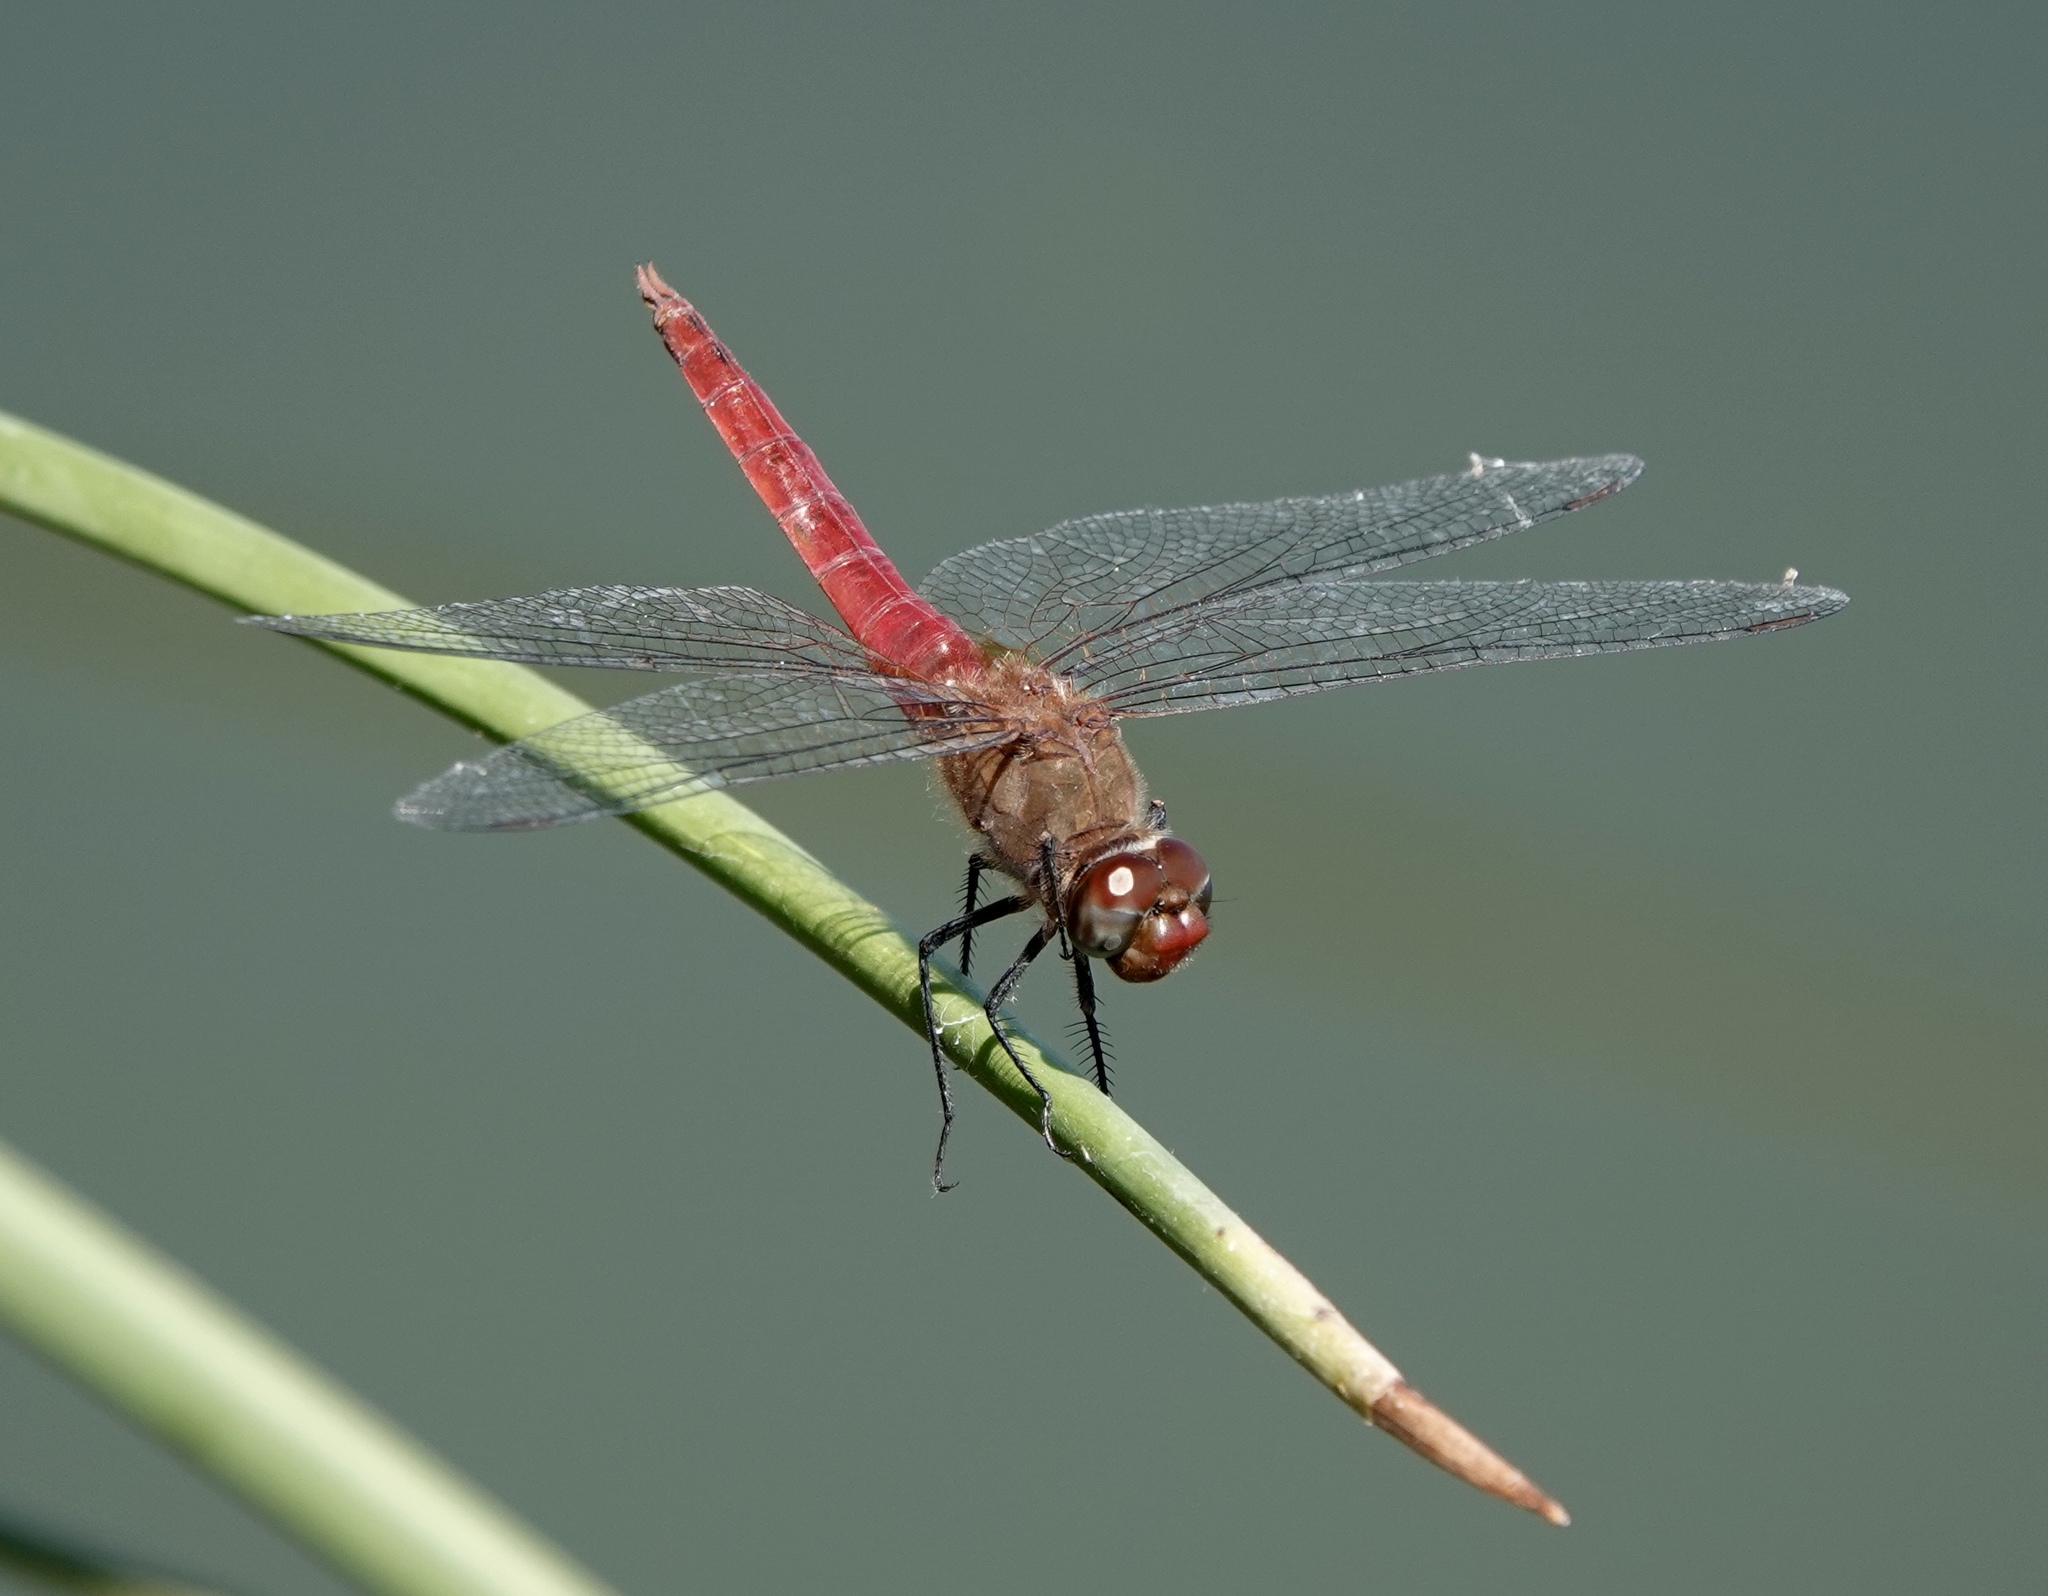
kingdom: Animalia
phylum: Arthropoda
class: Insecta
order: Odonata
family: Libellulidae
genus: Brachymesia
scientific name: Brachymesia furcata
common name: Red-taled pennant
